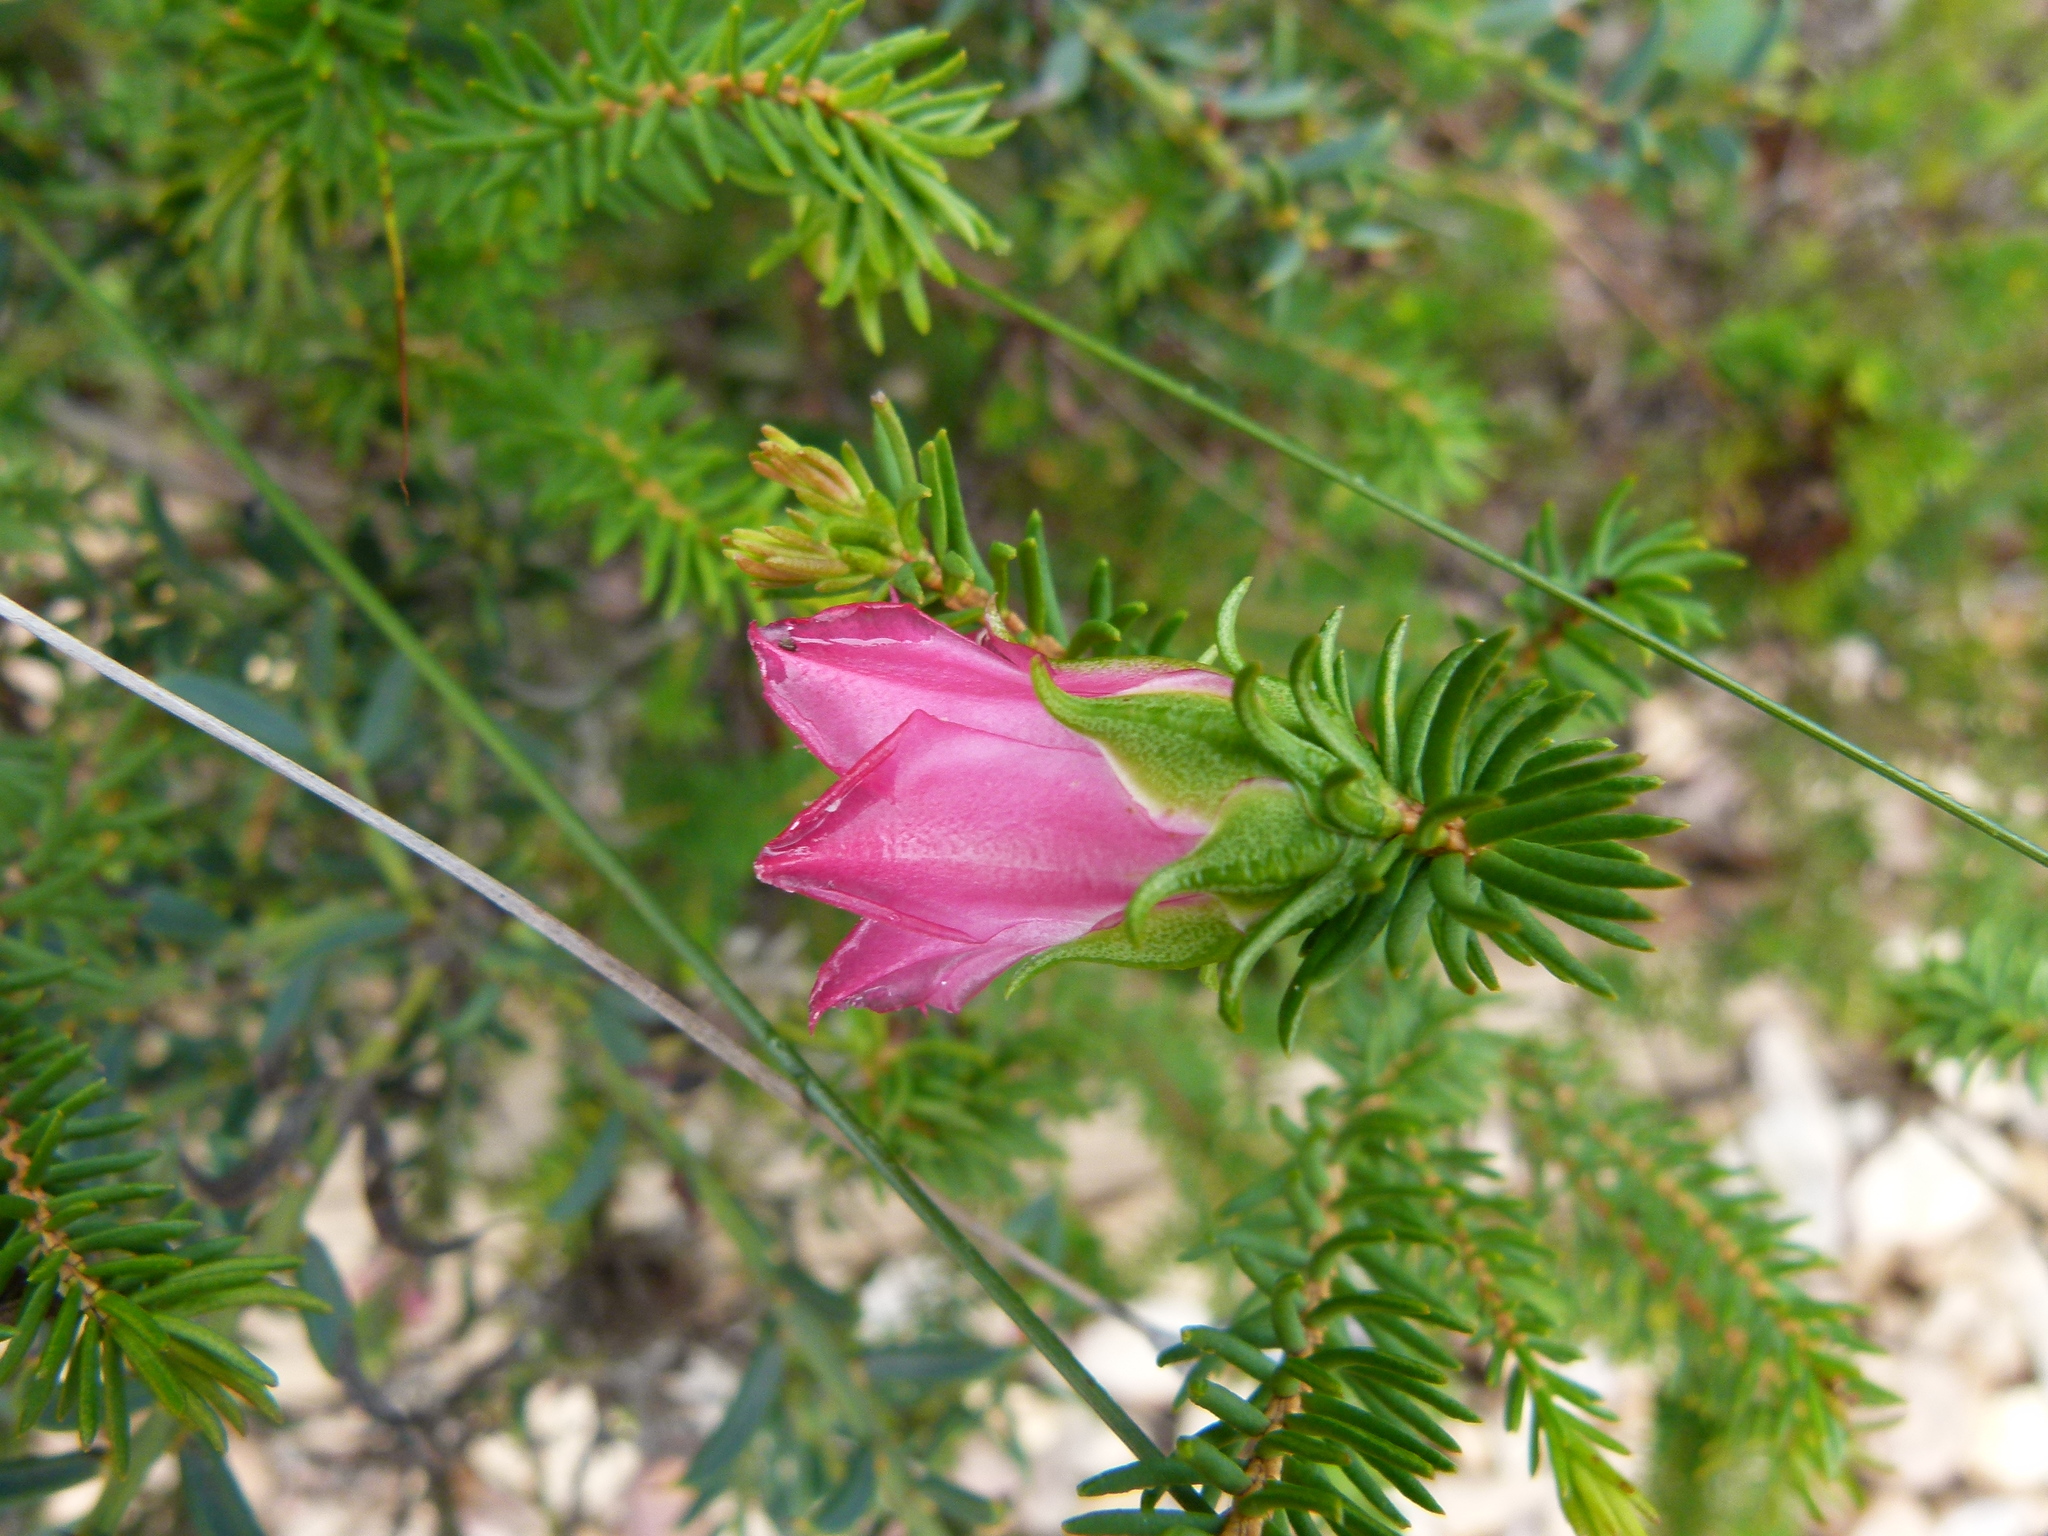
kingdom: Plantae
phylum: Tracheophyta
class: Magnoliopsida
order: Myrtales
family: Myrtaceae
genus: Darwinia
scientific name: Darwinia lejostyla
